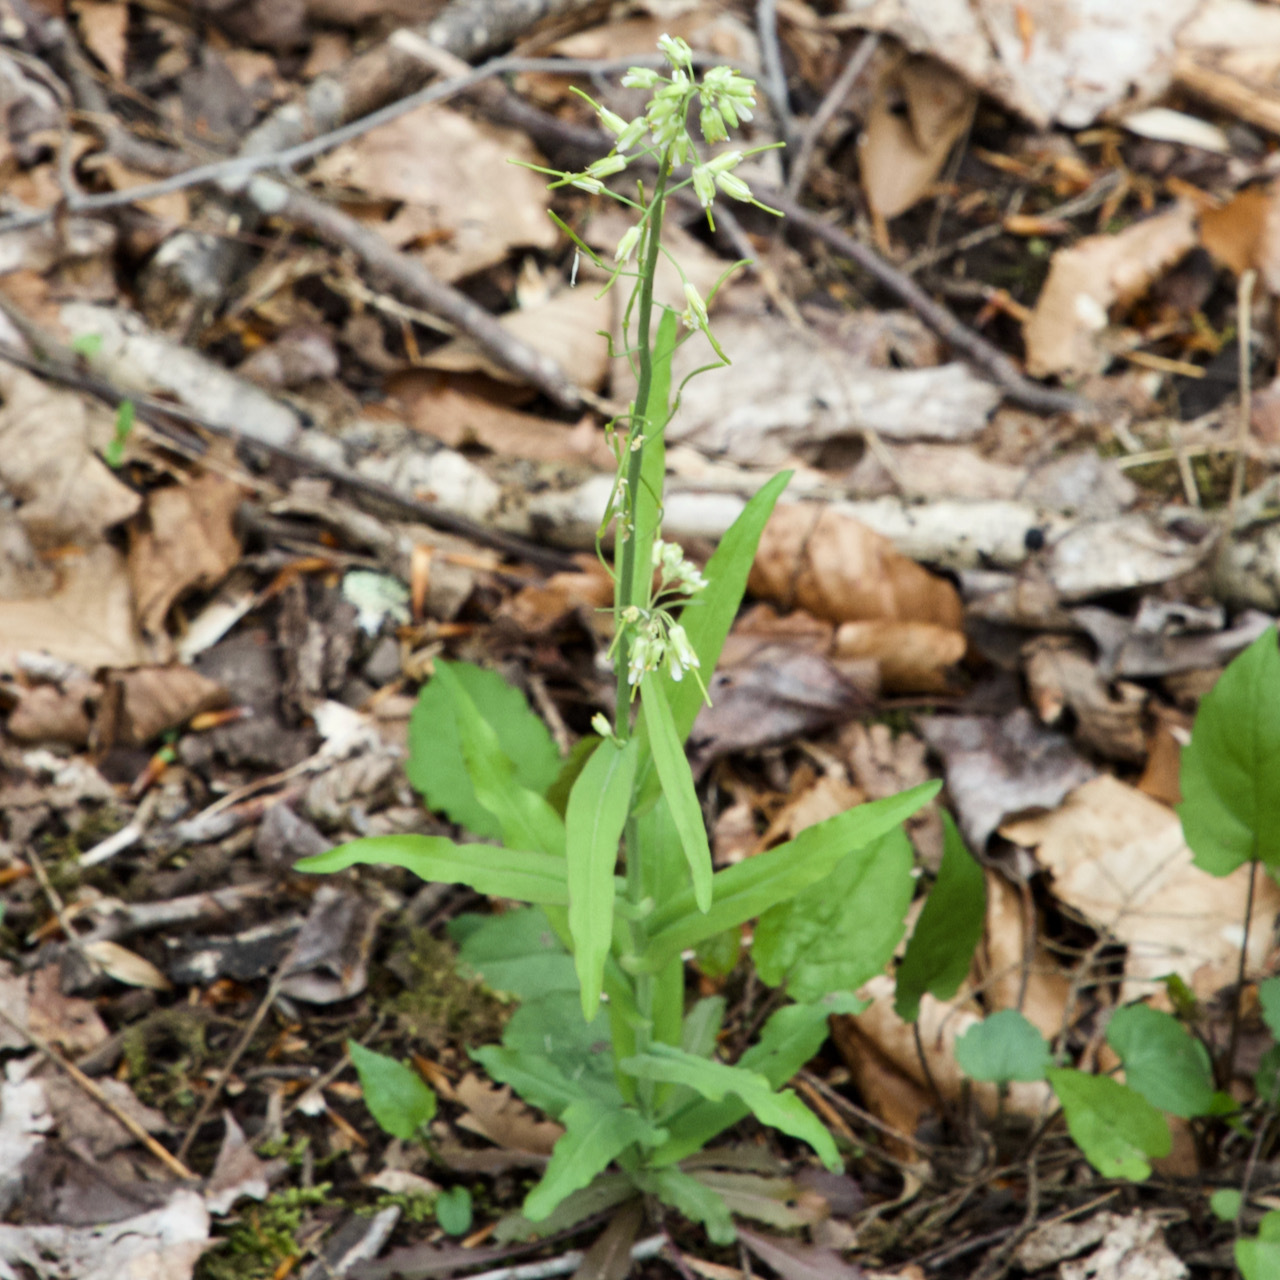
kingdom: Plantae
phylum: Tracheophyta
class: Magnoliopsida
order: Brassicales
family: Brassicaceae
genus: Borodinia
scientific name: Borodinia laevigata
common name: Smooth rockcress
